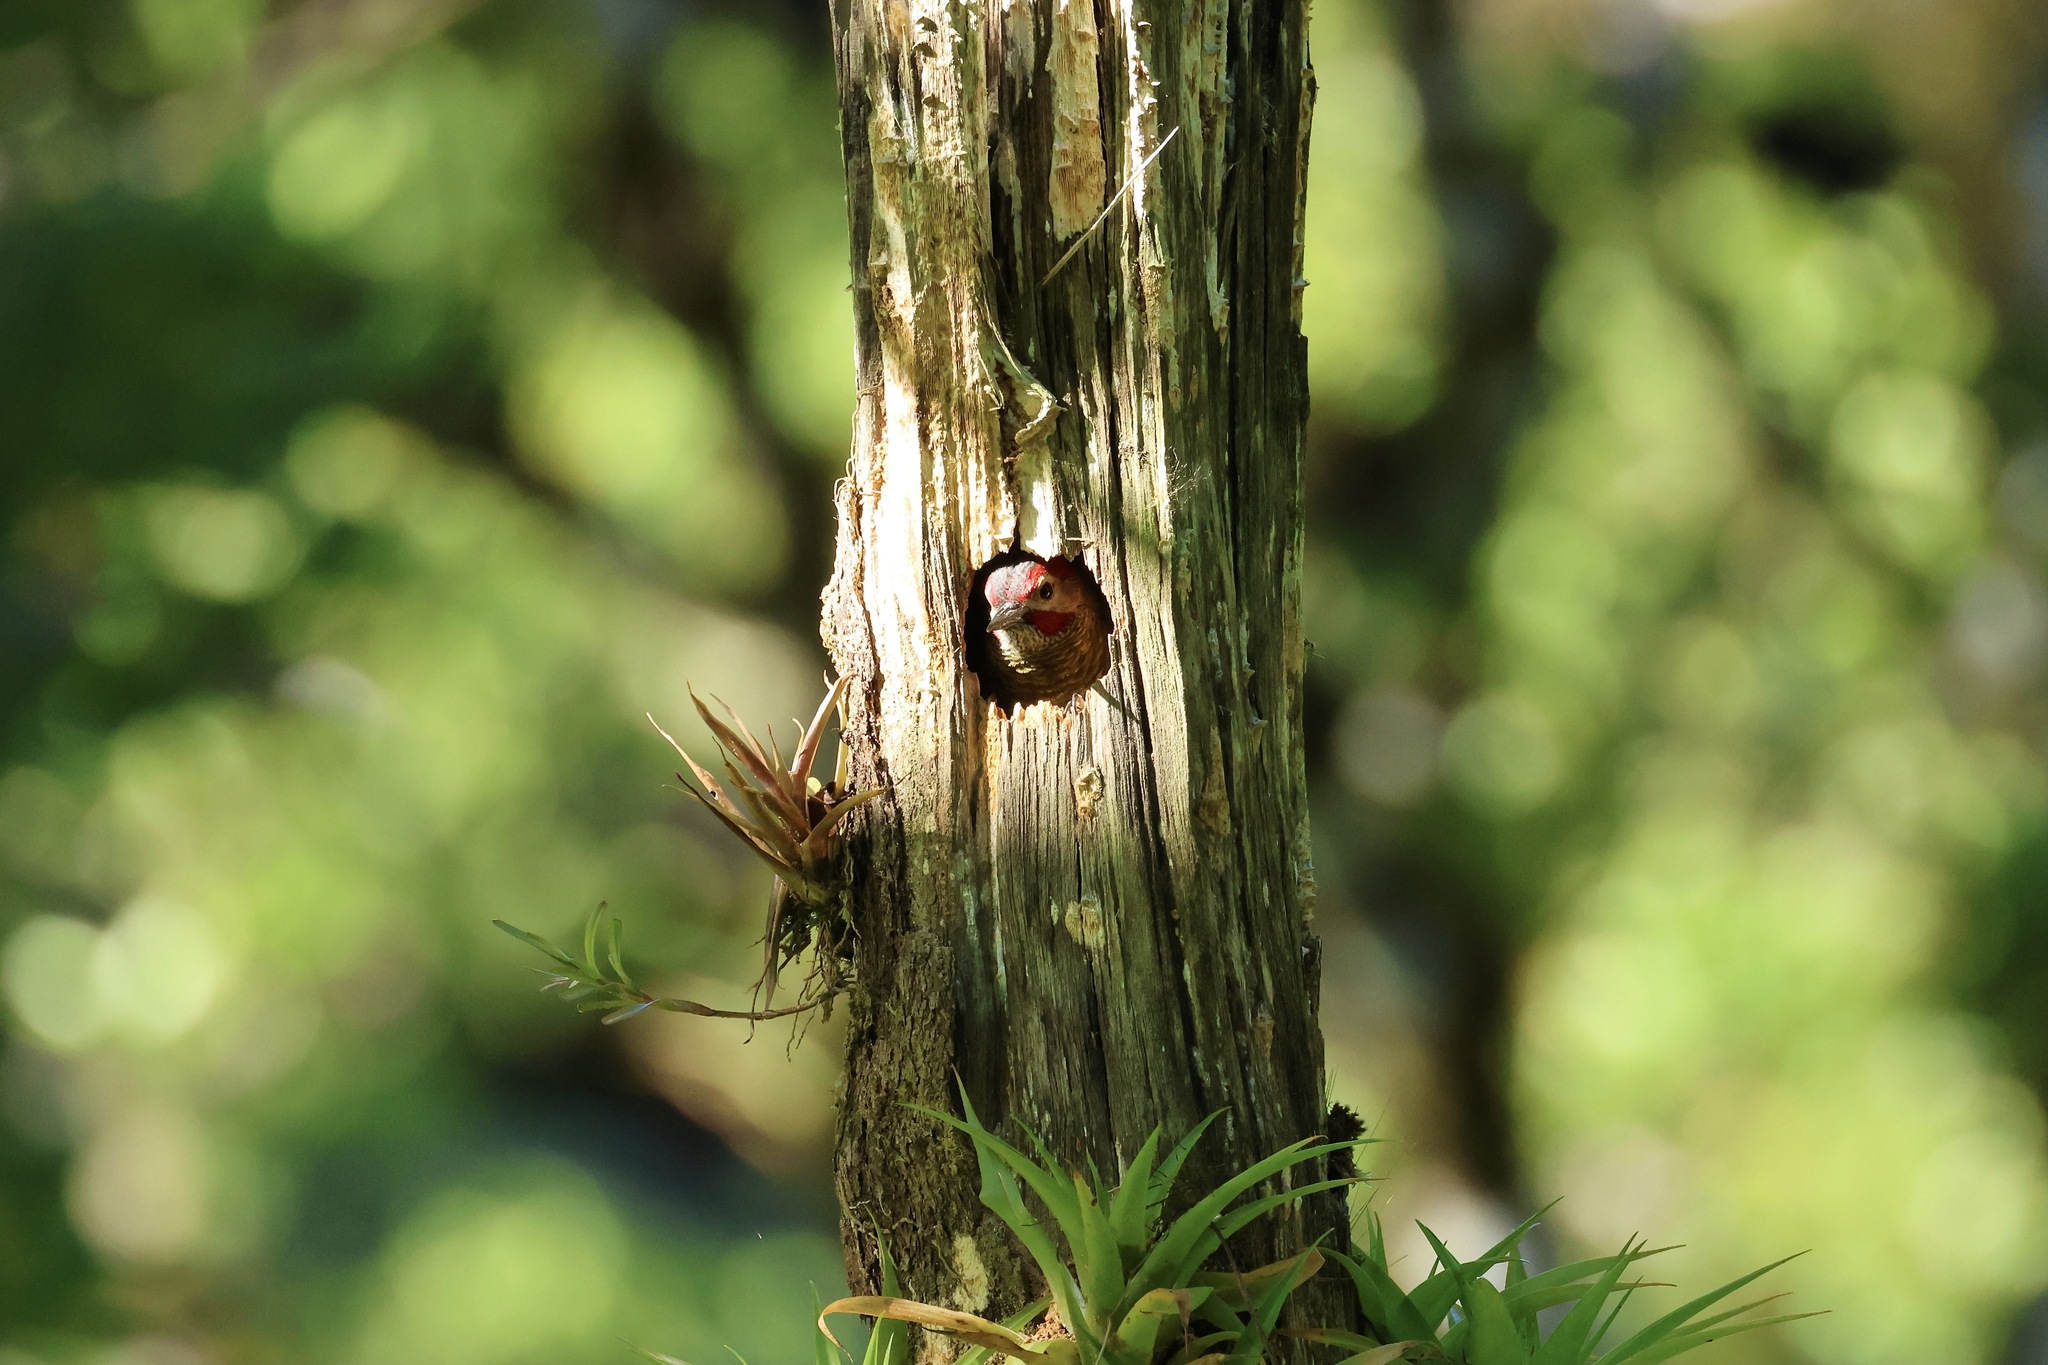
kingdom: Animalia
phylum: Chordata
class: Aves
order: Piciformes
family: Picidae
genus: Colaptes
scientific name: Colaptes rubiginosus
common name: Golden-olive woodpecker
